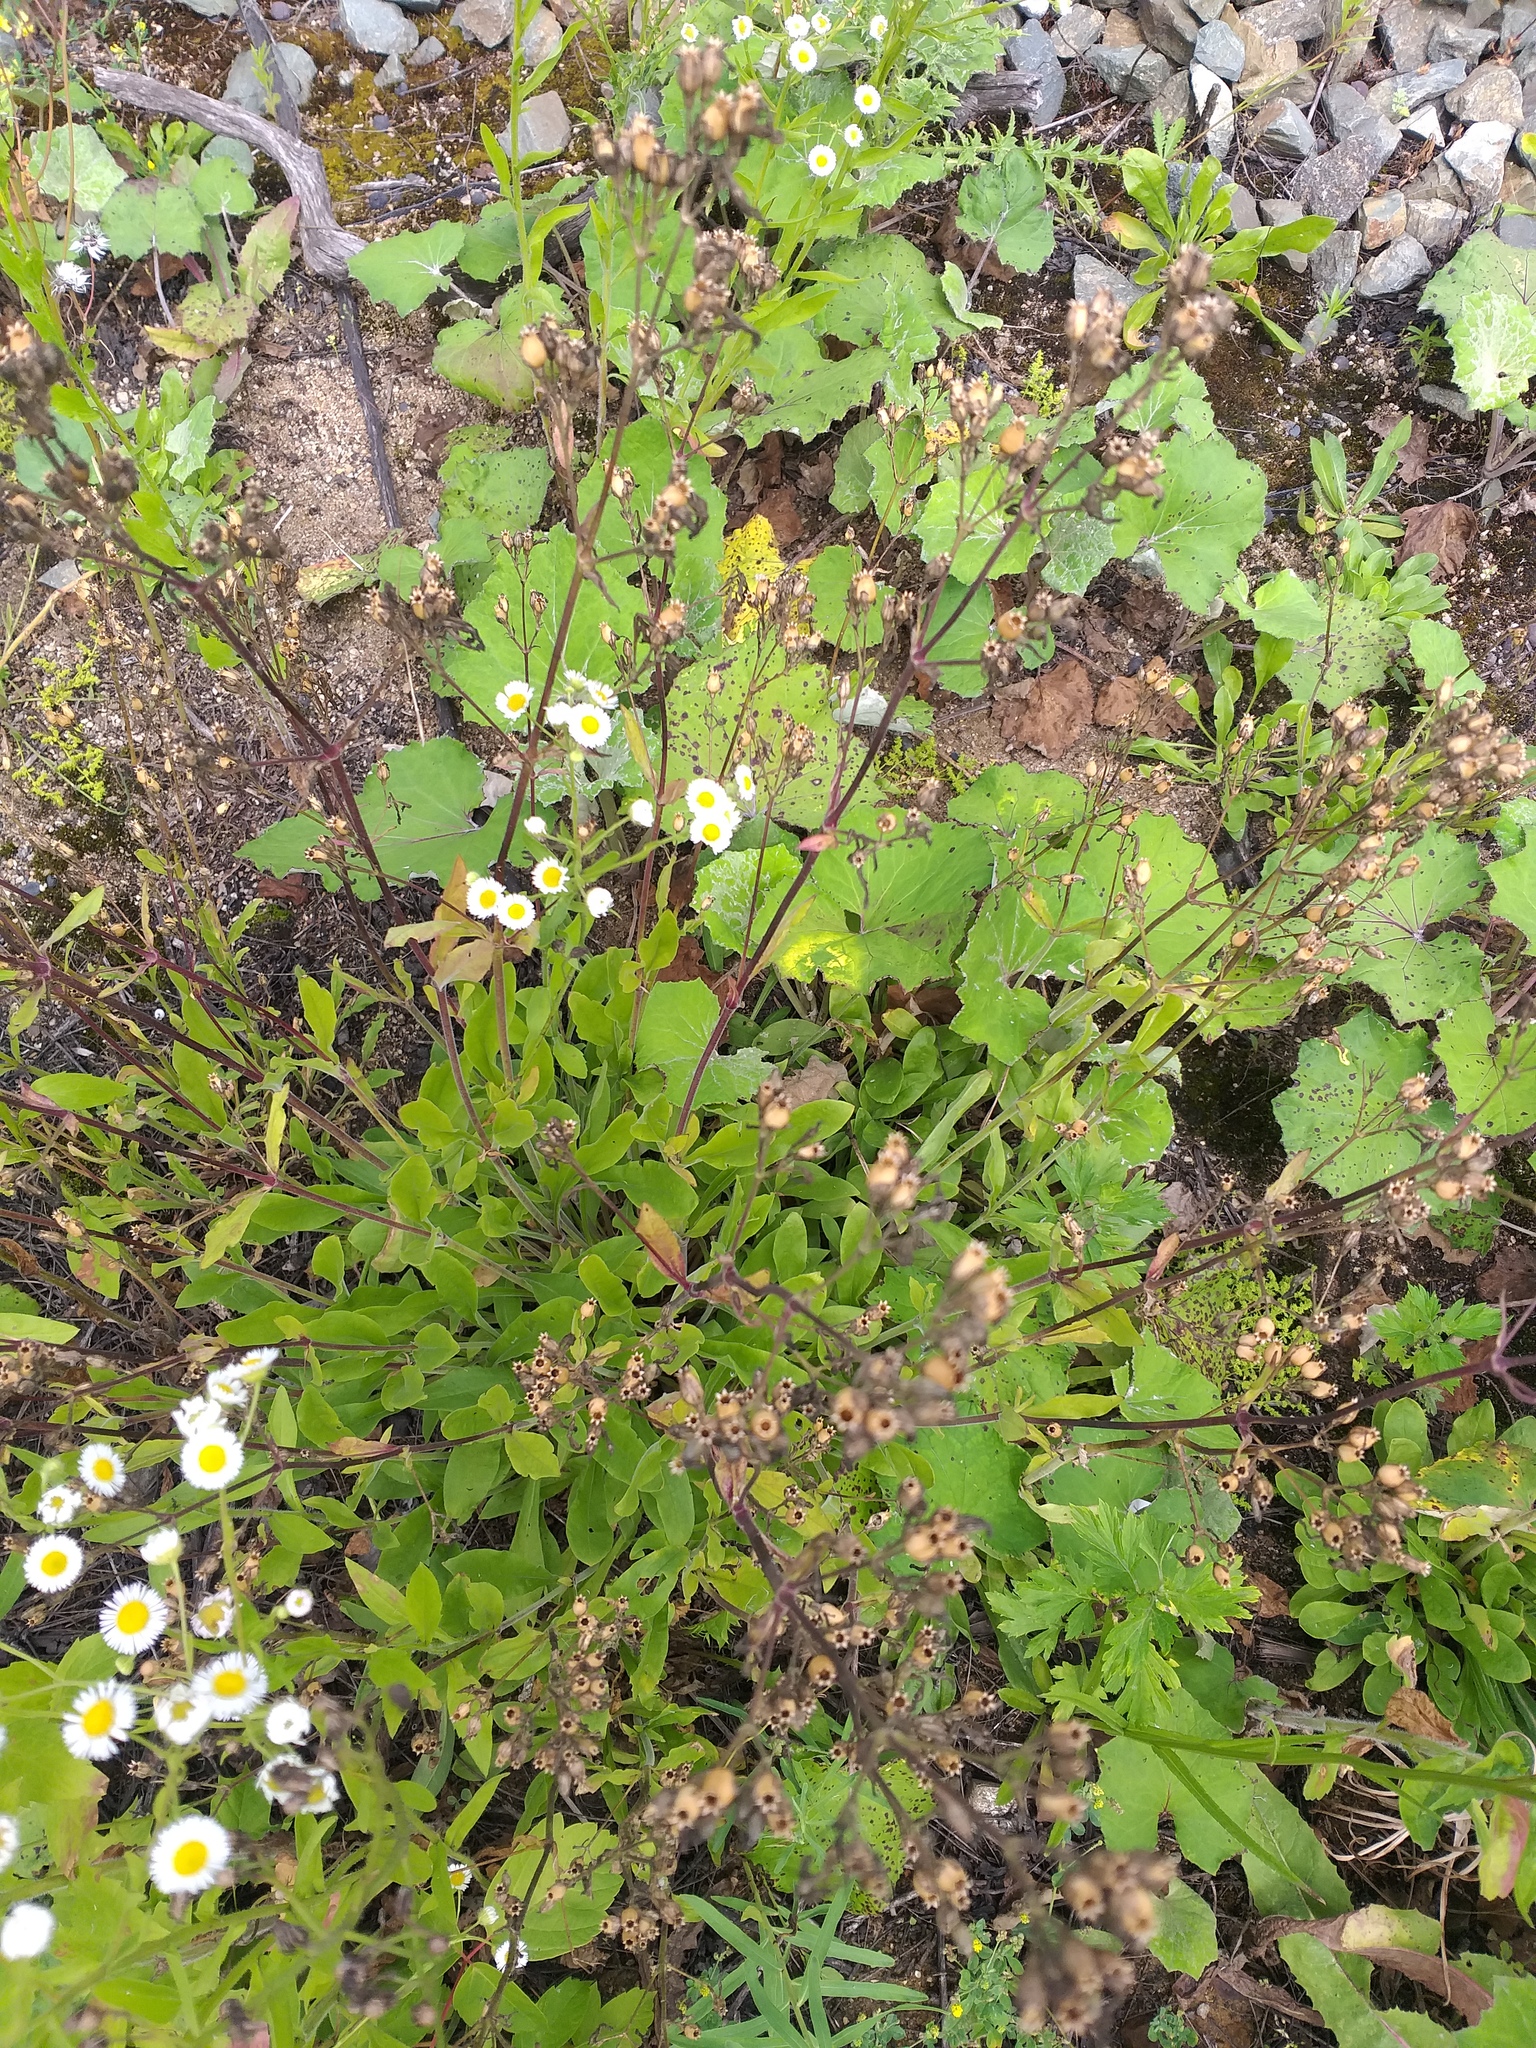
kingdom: Plantae
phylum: Tracheophyta
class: Magnoliopsida
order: Caryophyllales
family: Caryophyllaceae
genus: Silene
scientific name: Silene nutans
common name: Nottingham catchfly
